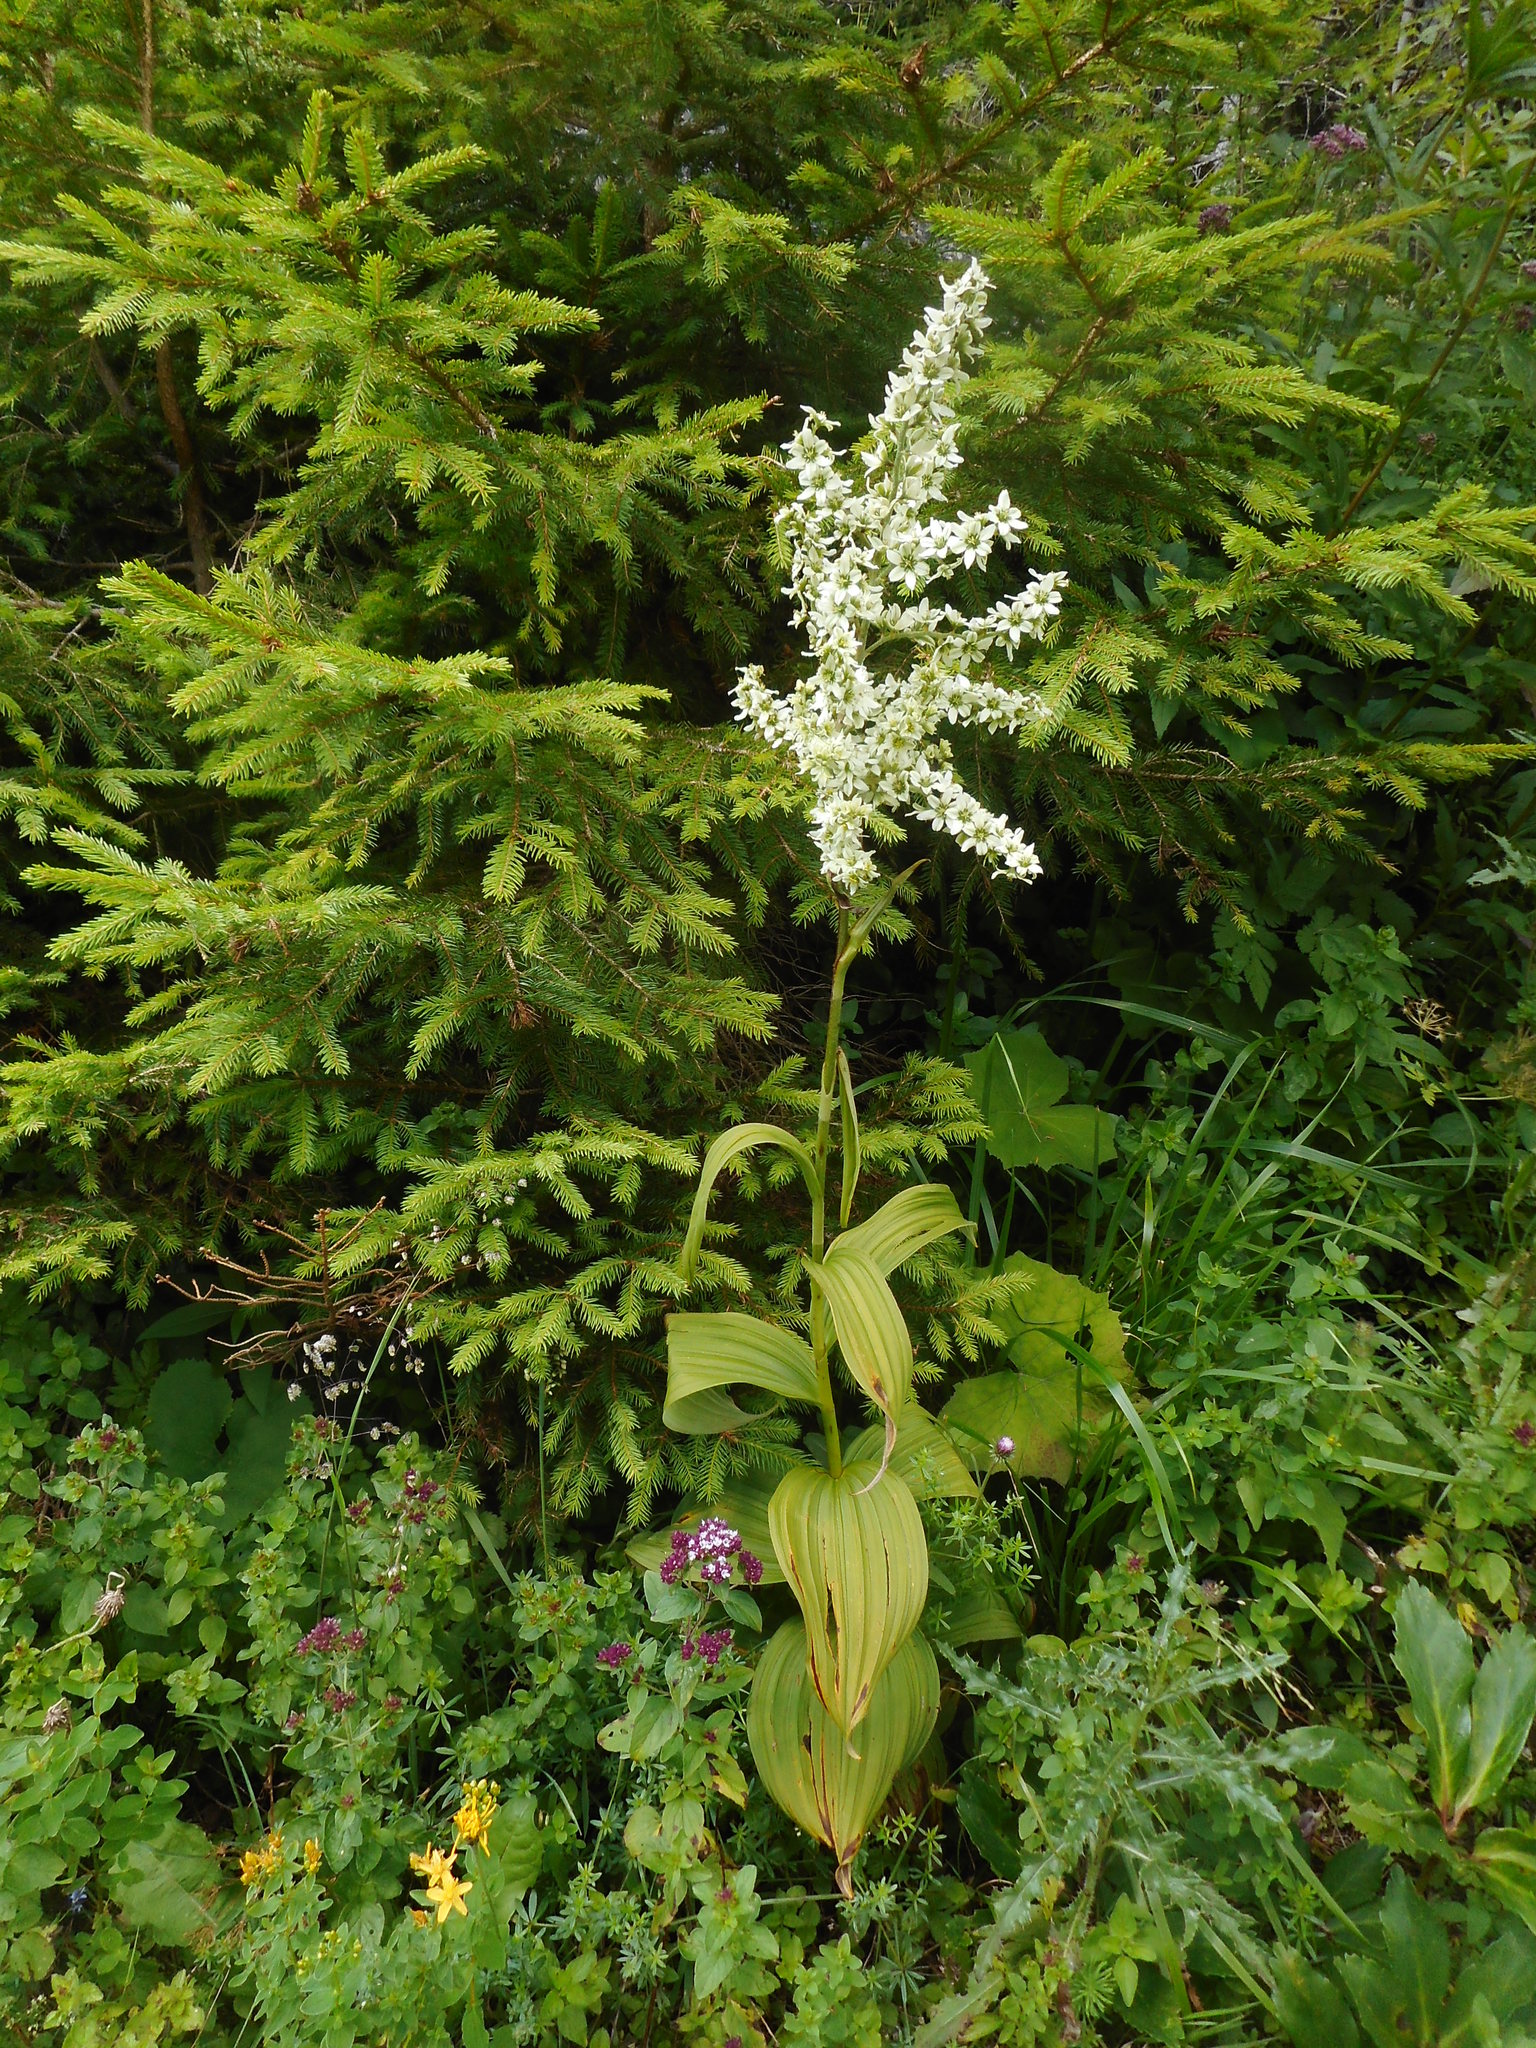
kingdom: Plantae
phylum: Tracheophyta
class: Liliopsida
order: Liliales
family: Melanthiaceae
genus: Veratrum
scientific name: Veratrum album
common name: White veratrum
